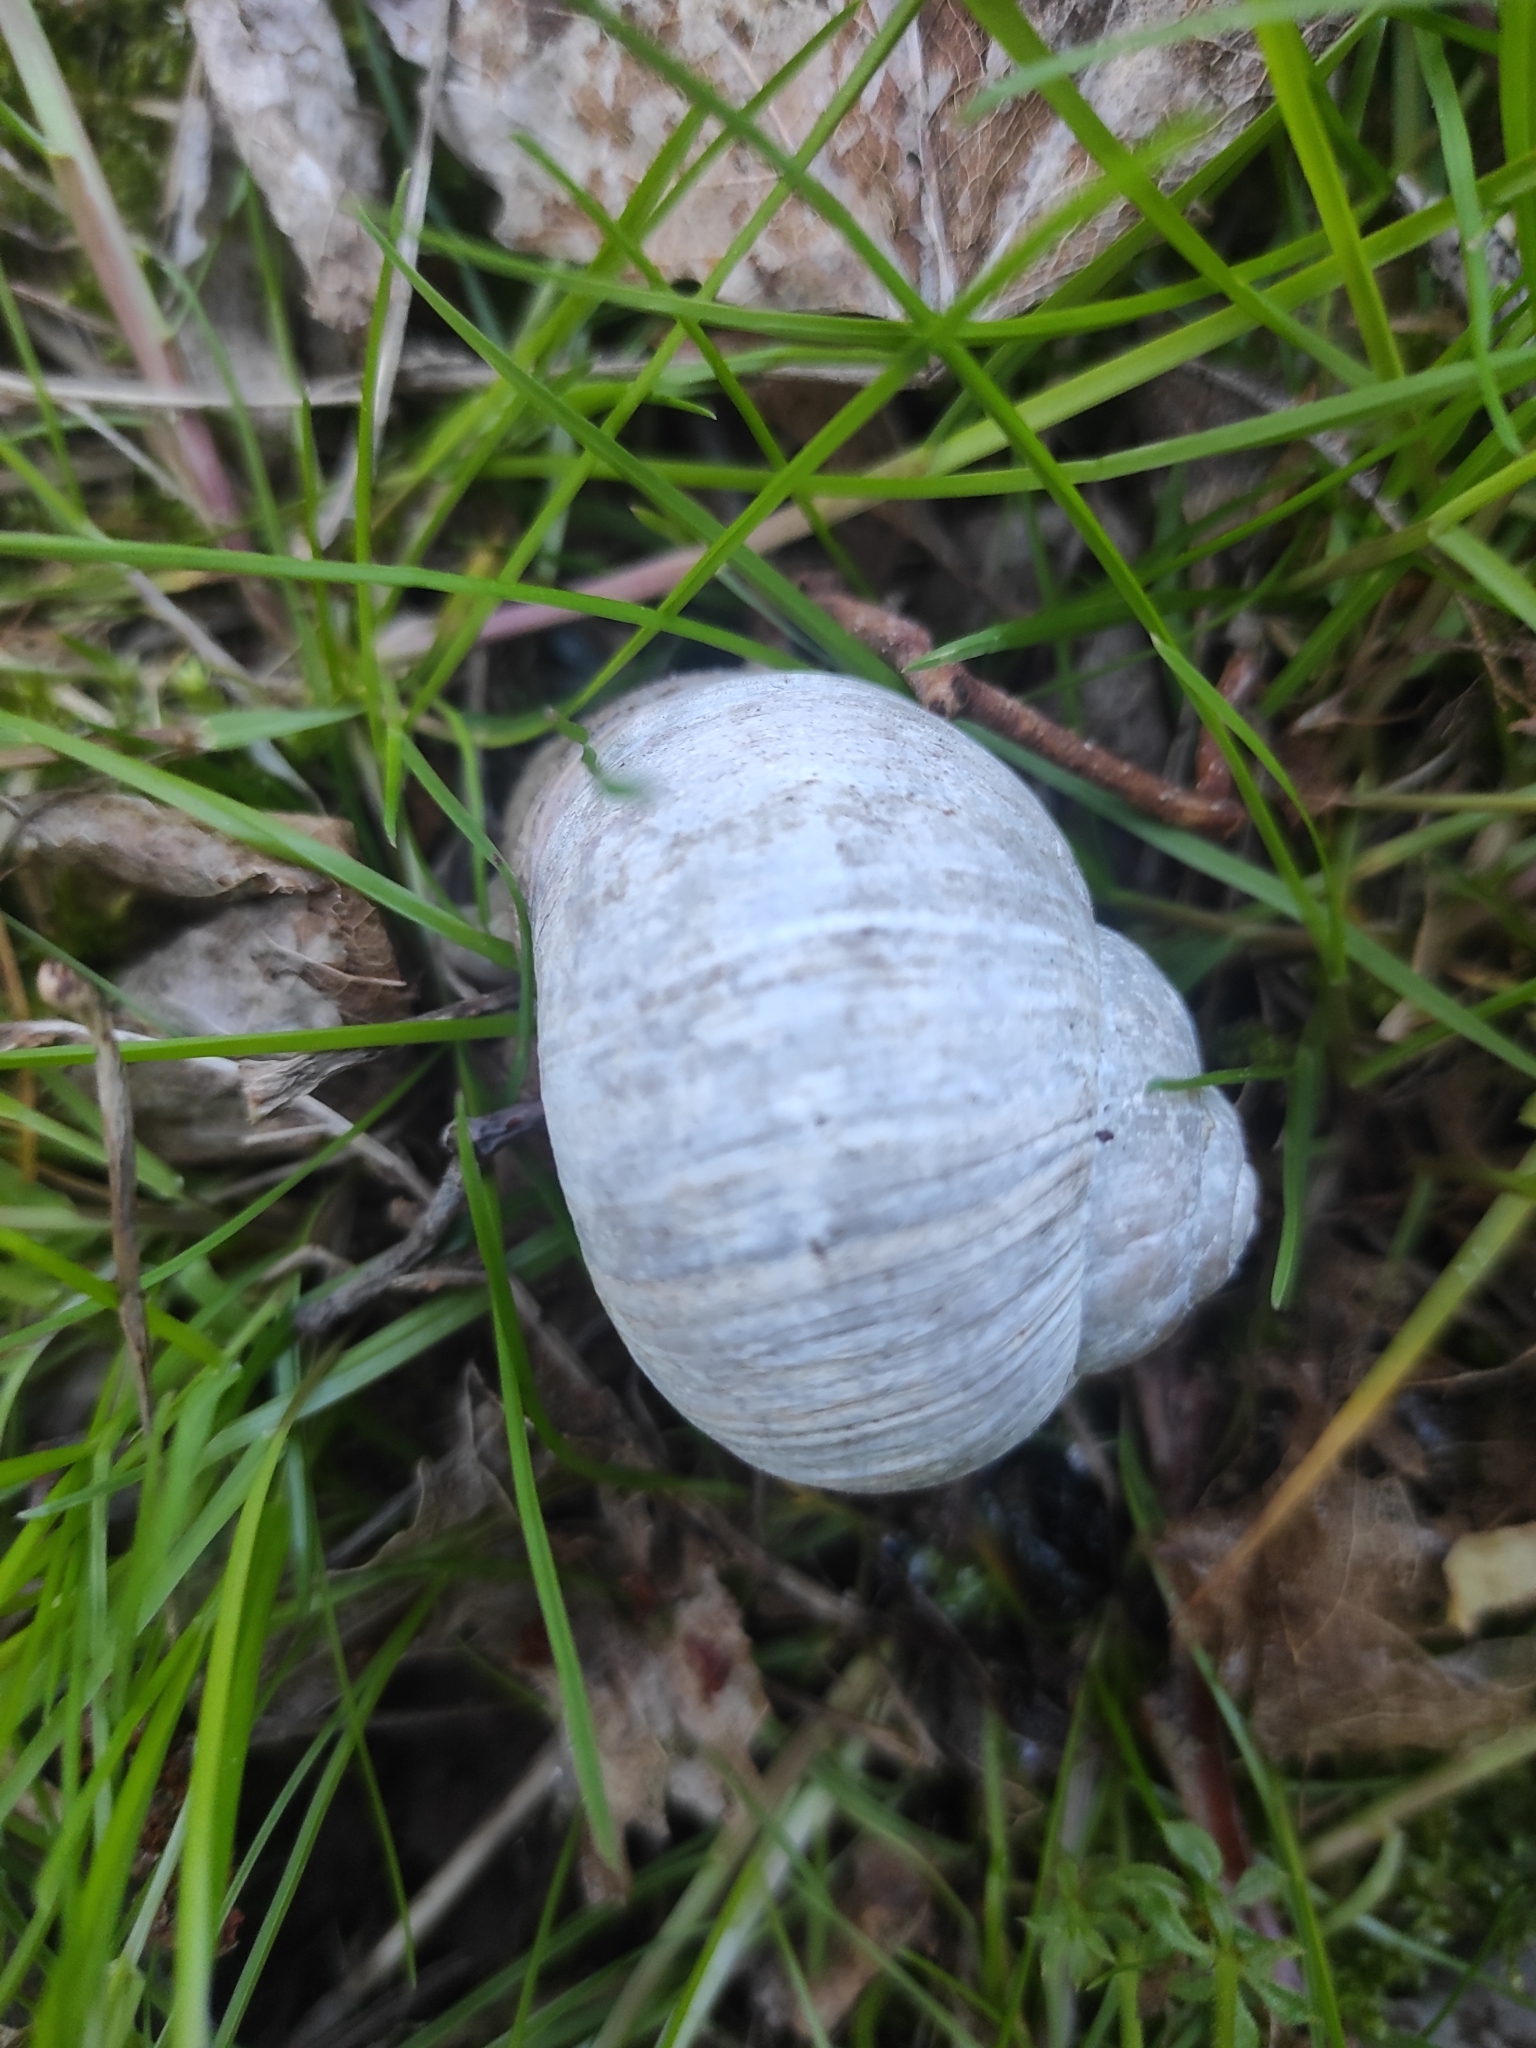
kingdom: Animalia
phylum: Mollusca
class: Gastropoda
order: Stylommatophora
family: Helicidae
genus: Helix
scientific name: Helix pomatia
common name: Roman snail
